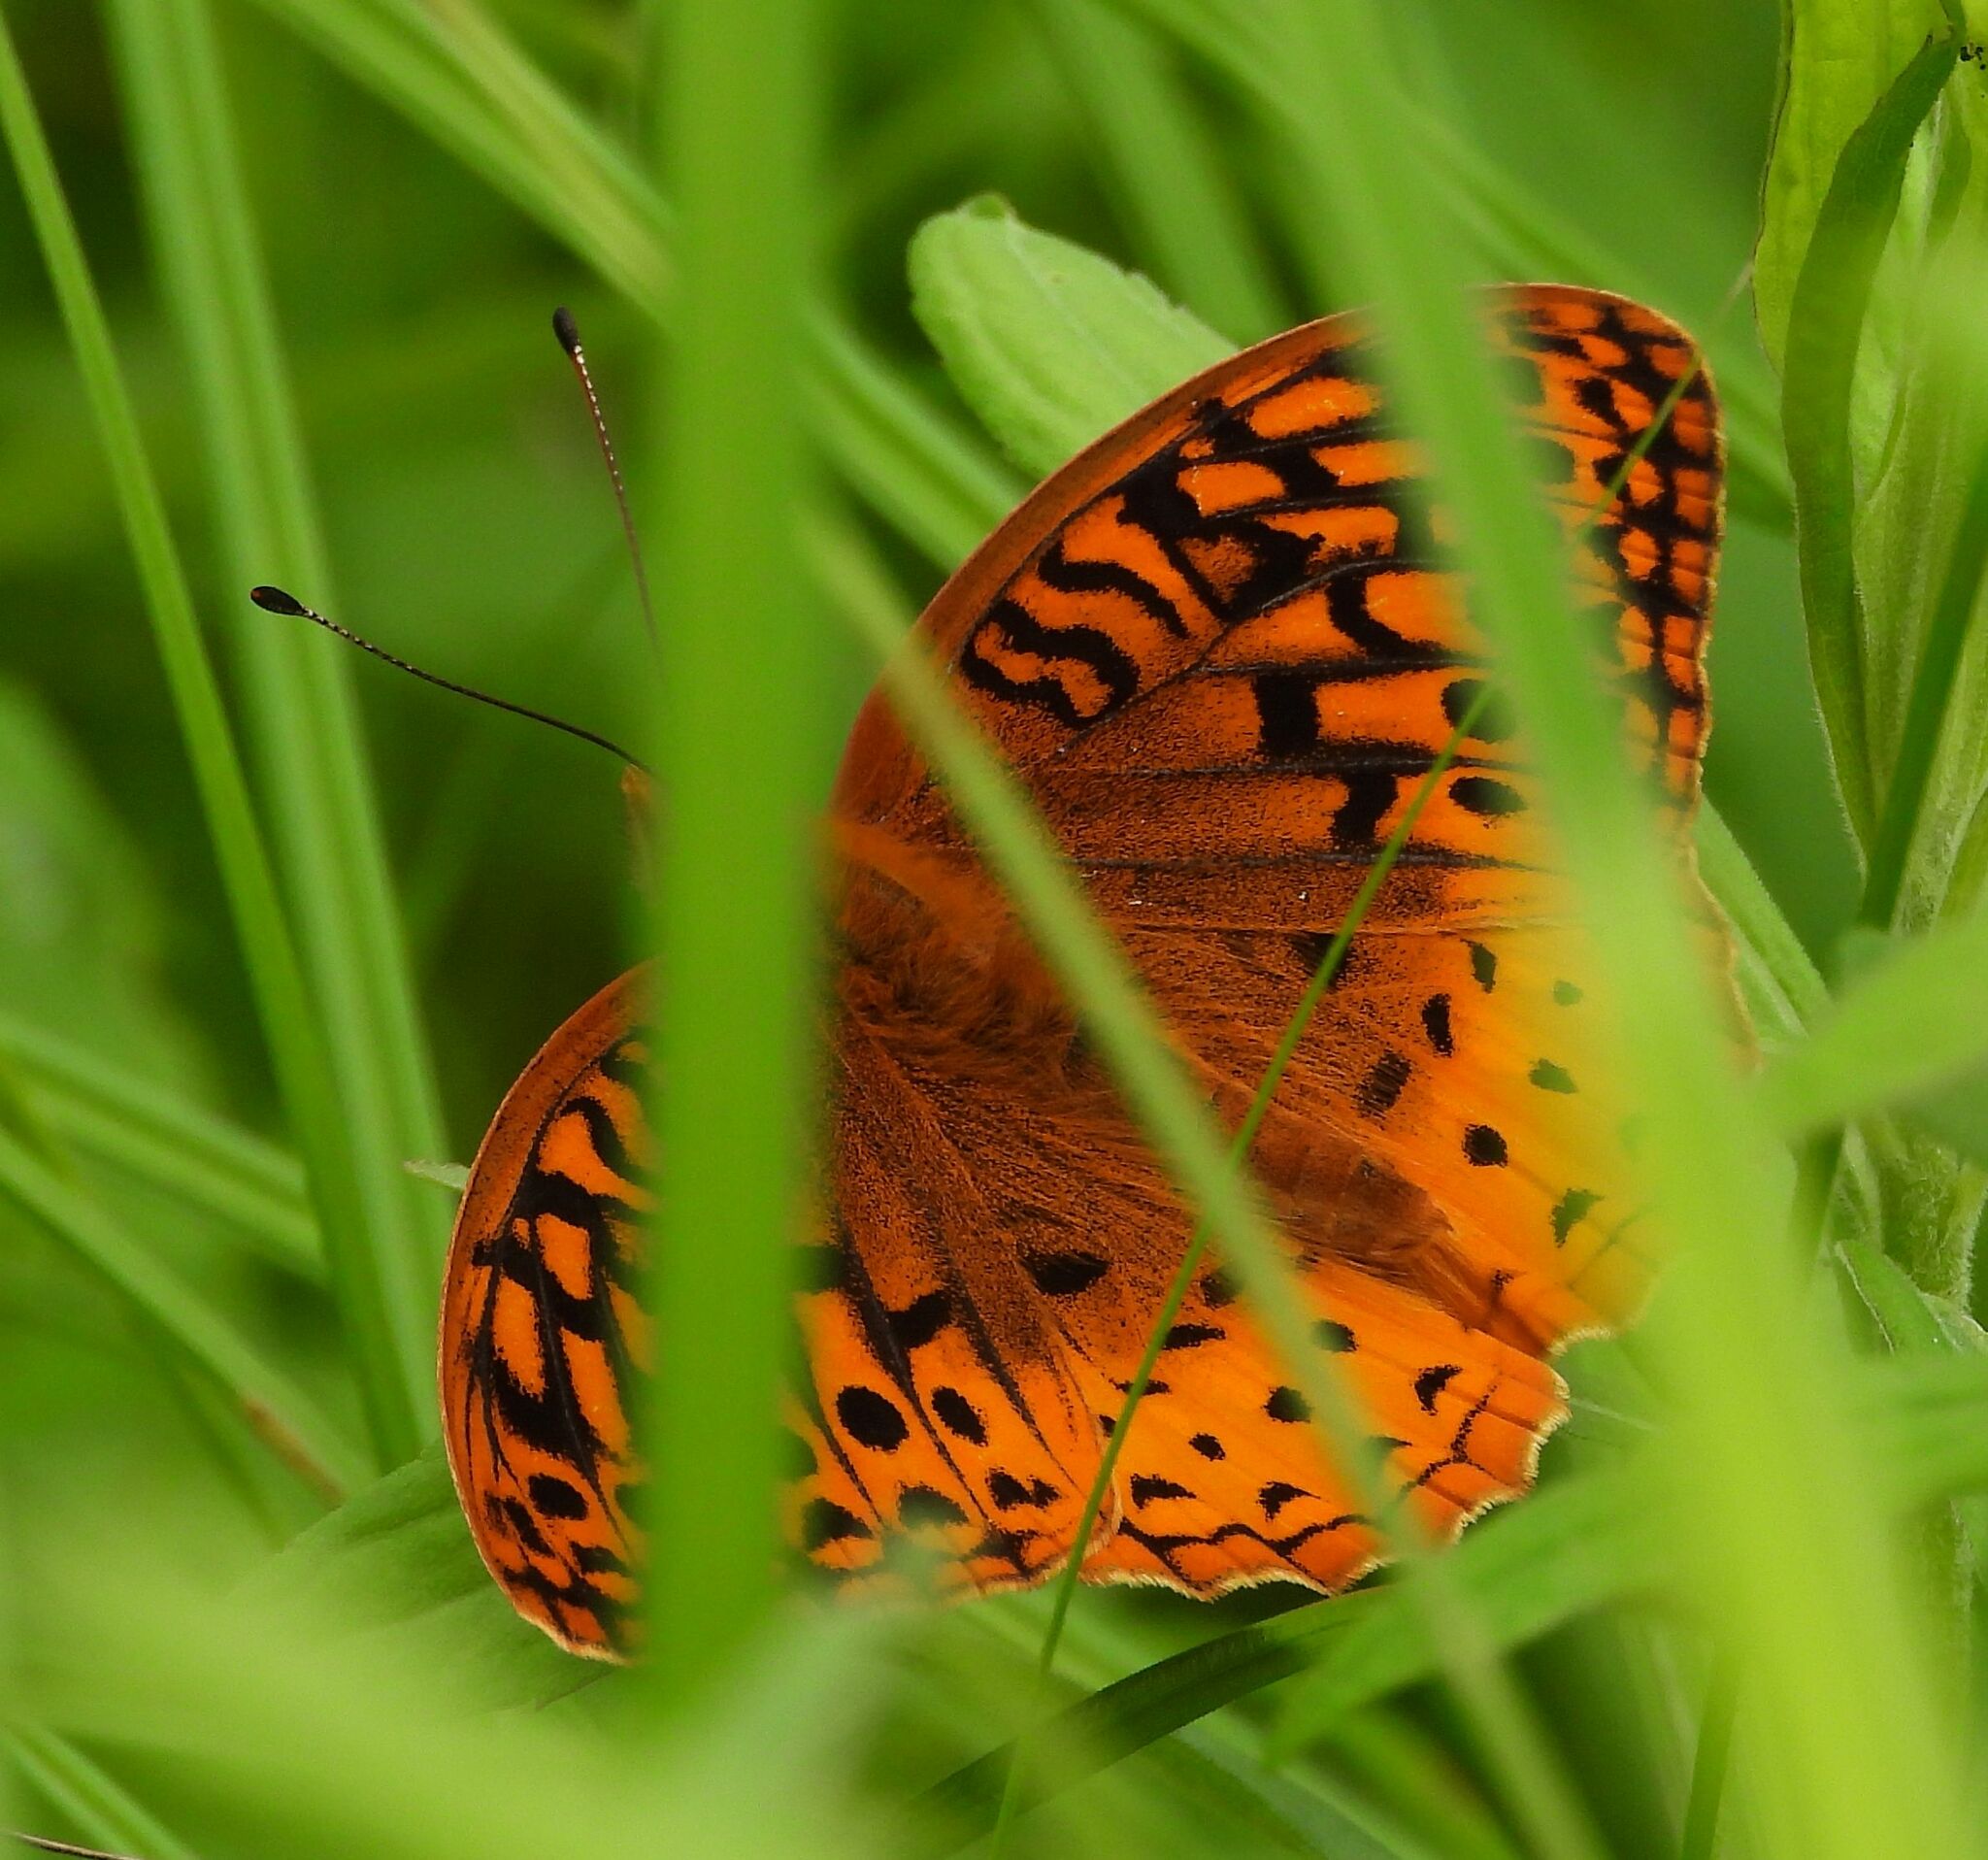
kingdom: Animalia
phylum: Arthropoda
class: Insecta
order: Lepidoptera
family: Nymphalidae
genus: Speyeria
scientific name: Speyeria cybele
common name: Great spangled fritillary
